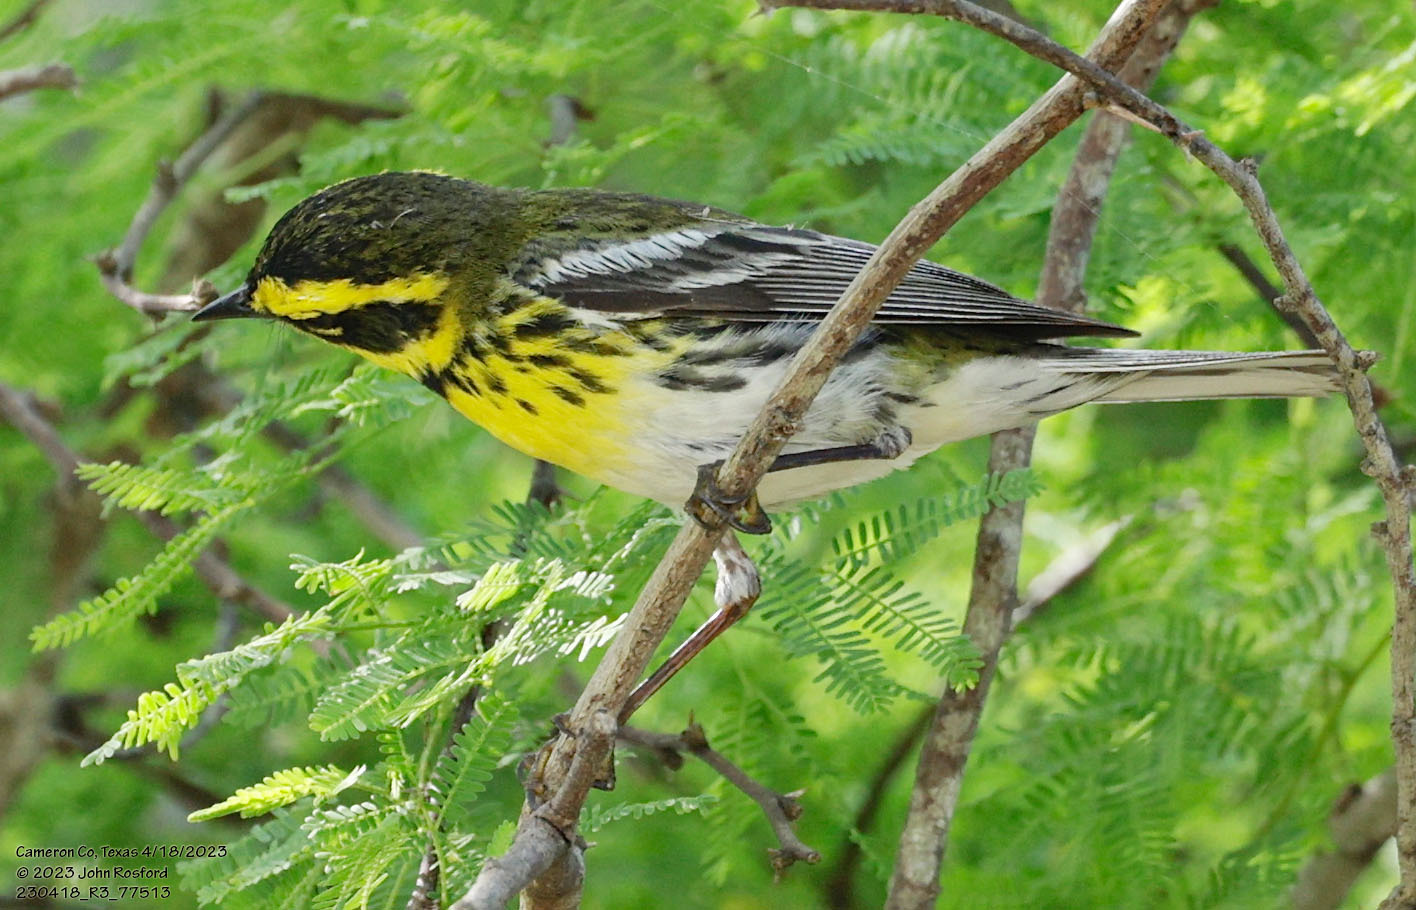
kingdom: Animalia
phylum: Chordata
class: Aves
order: Passeriformes
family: Parulidae
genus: Setophaga
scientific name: Setophaga townsendi
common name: Townsend's warbler
